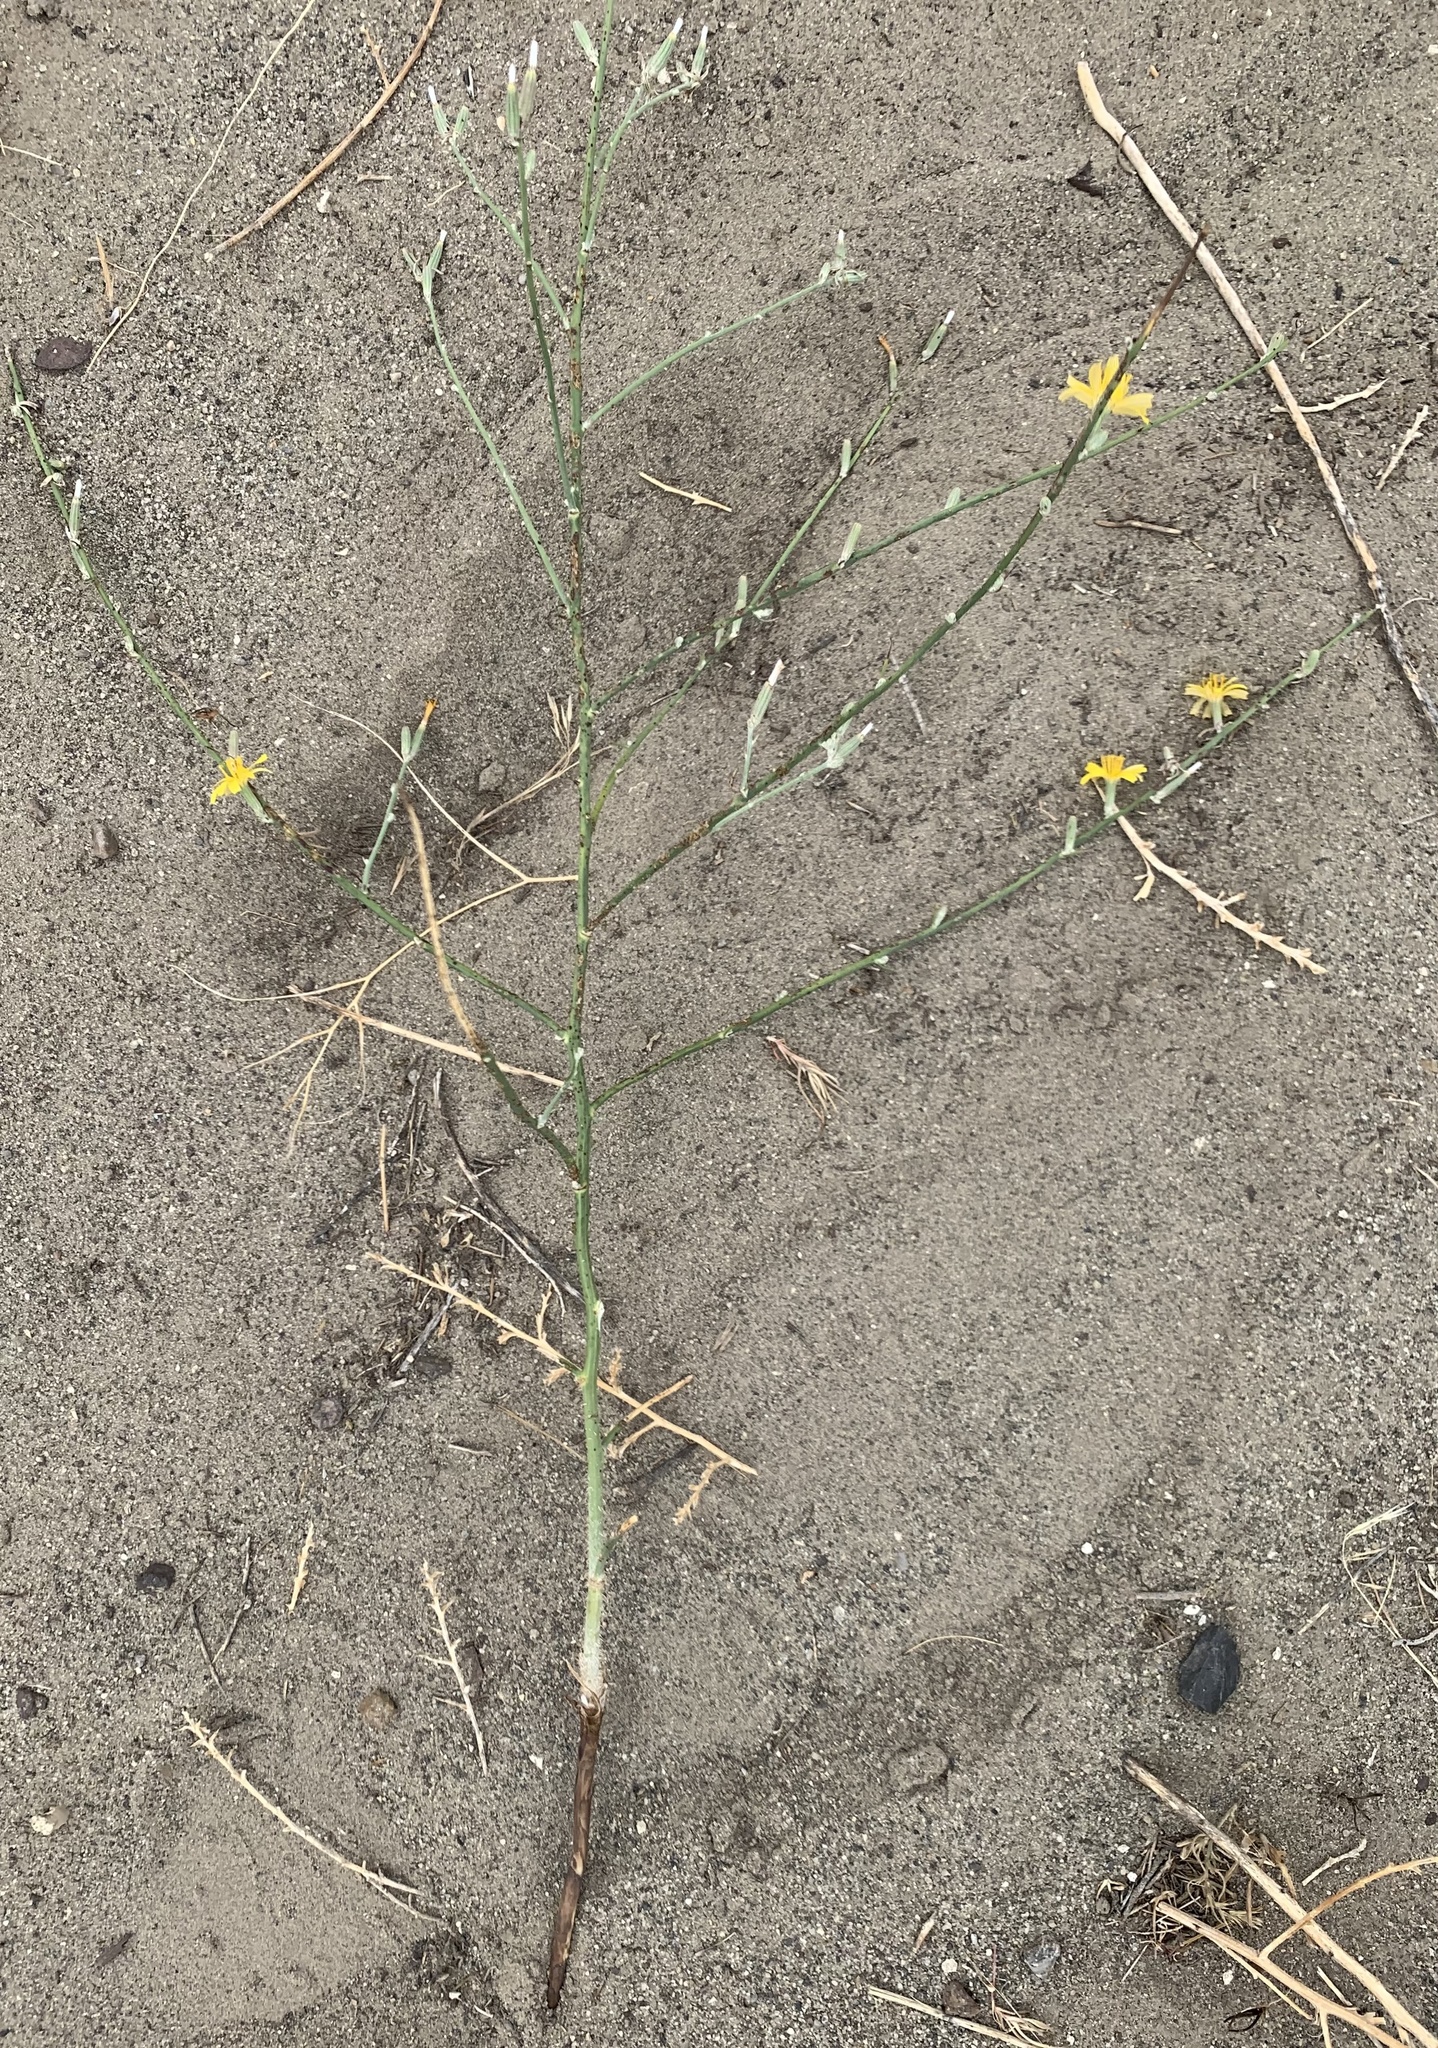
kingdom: Plantae
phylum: Tracheophyta
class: Magnoliopsida
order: Asterales
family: Asteraceae
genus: Chondrilla
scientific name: Chondrilla juncea
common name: Skeleton weed
